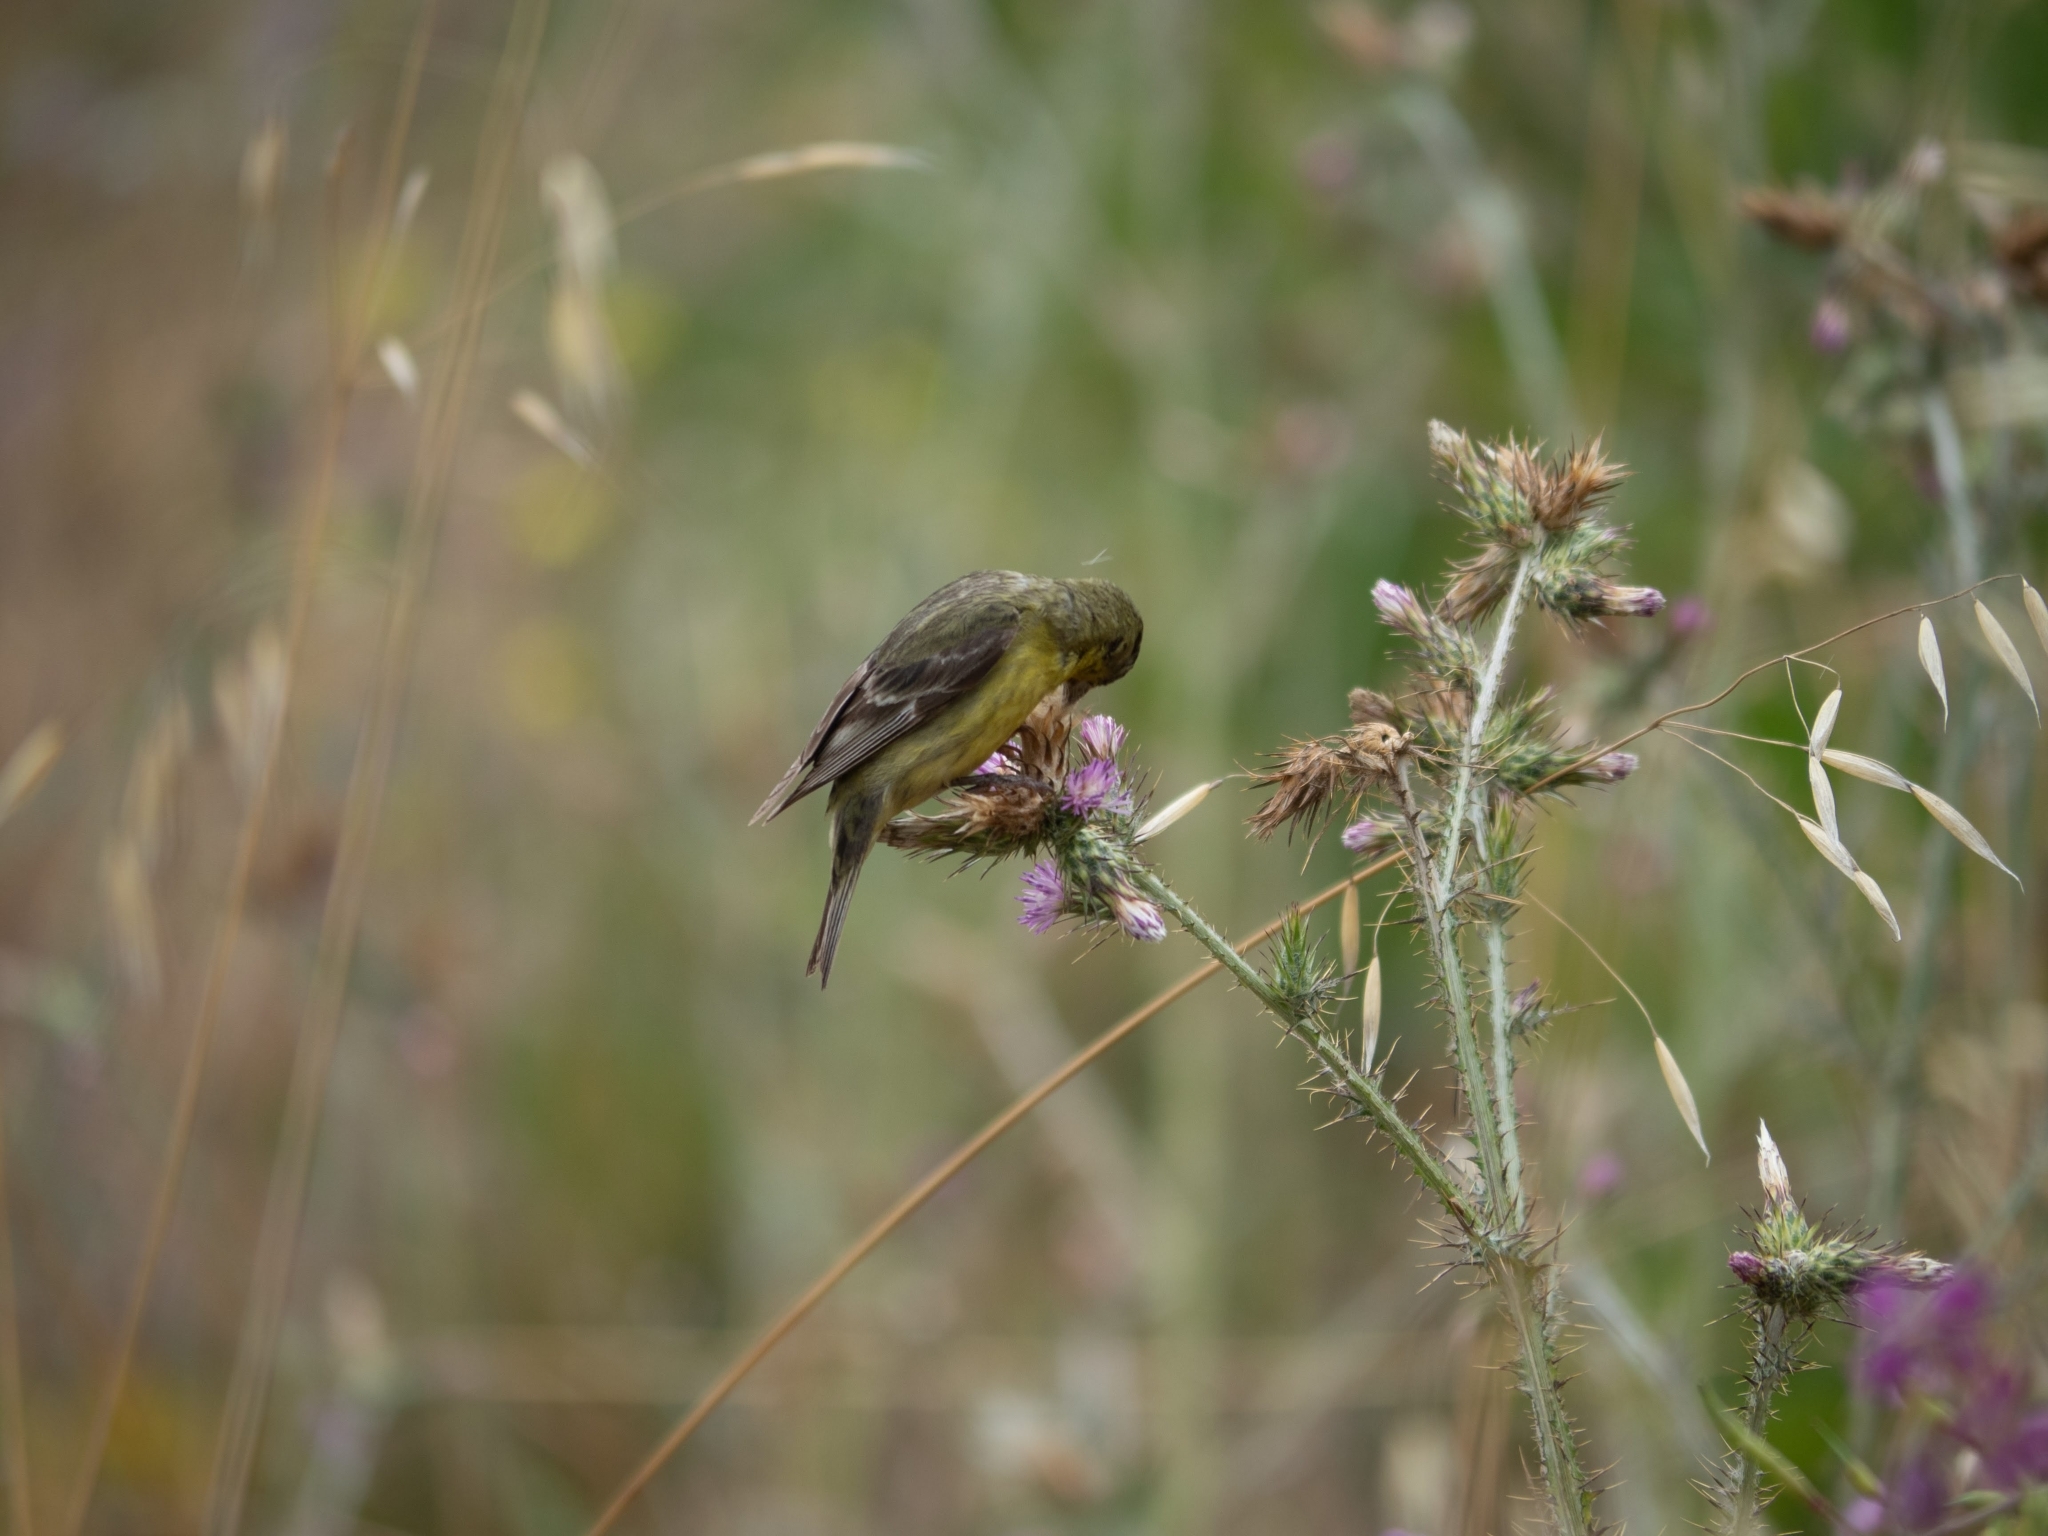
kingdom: Animalia
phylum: Chordata
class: Aves
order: Passeriformes
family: Fringillidae
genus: Spinus
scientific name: Spinus psaltria
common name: Lesser goldfinch
